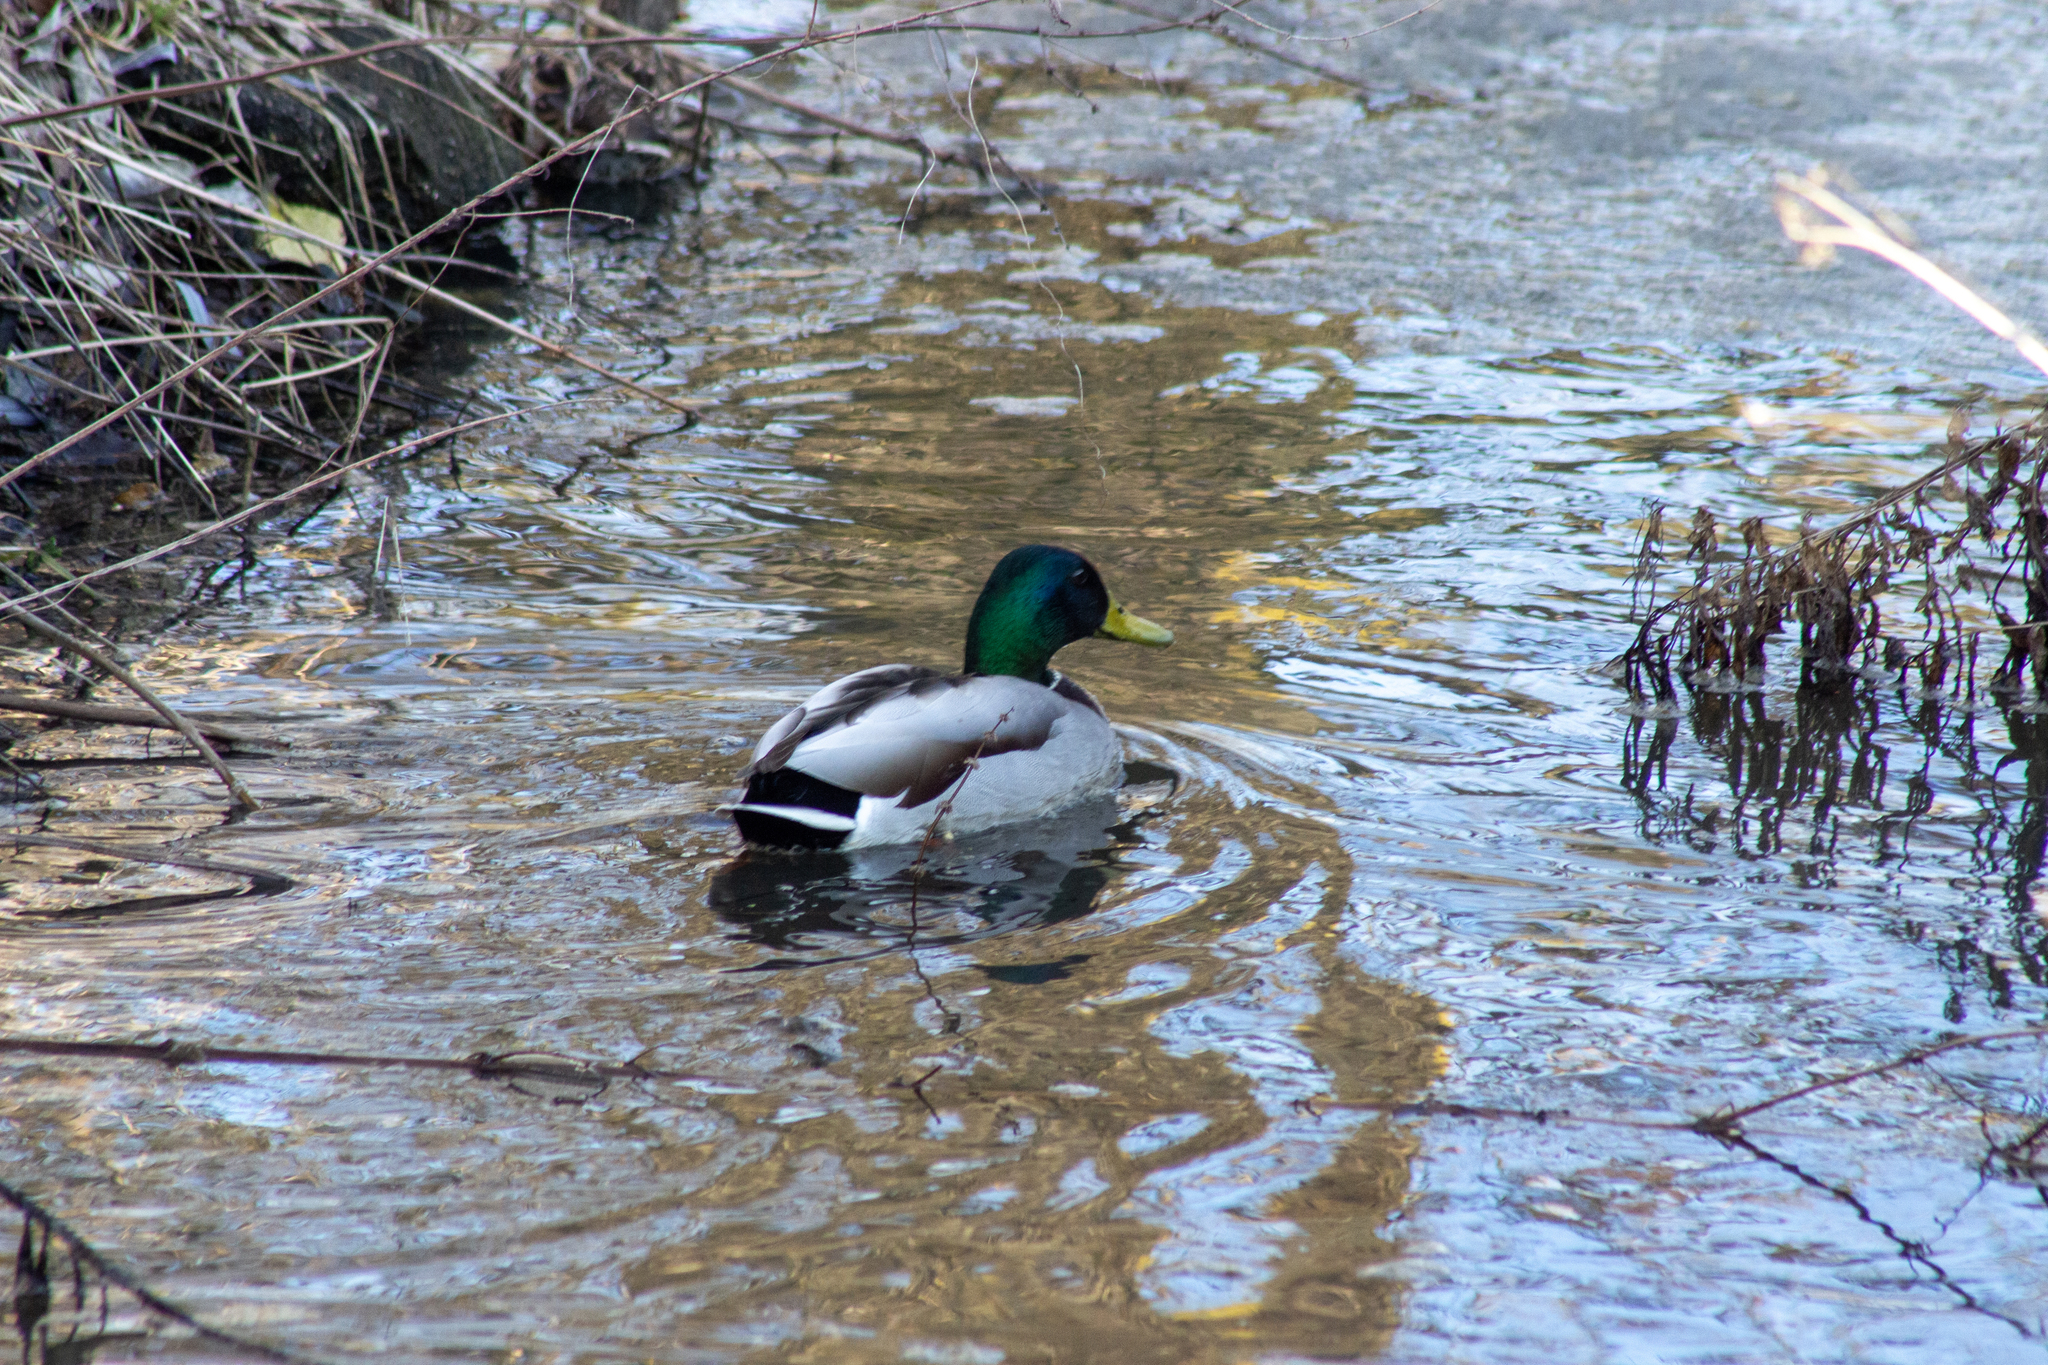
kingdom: Animalia
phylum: Chordata
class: Aves
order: Anseriformes
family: Anatidae
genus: Anas
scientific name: Anas platyrhynchos
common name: Mallard
